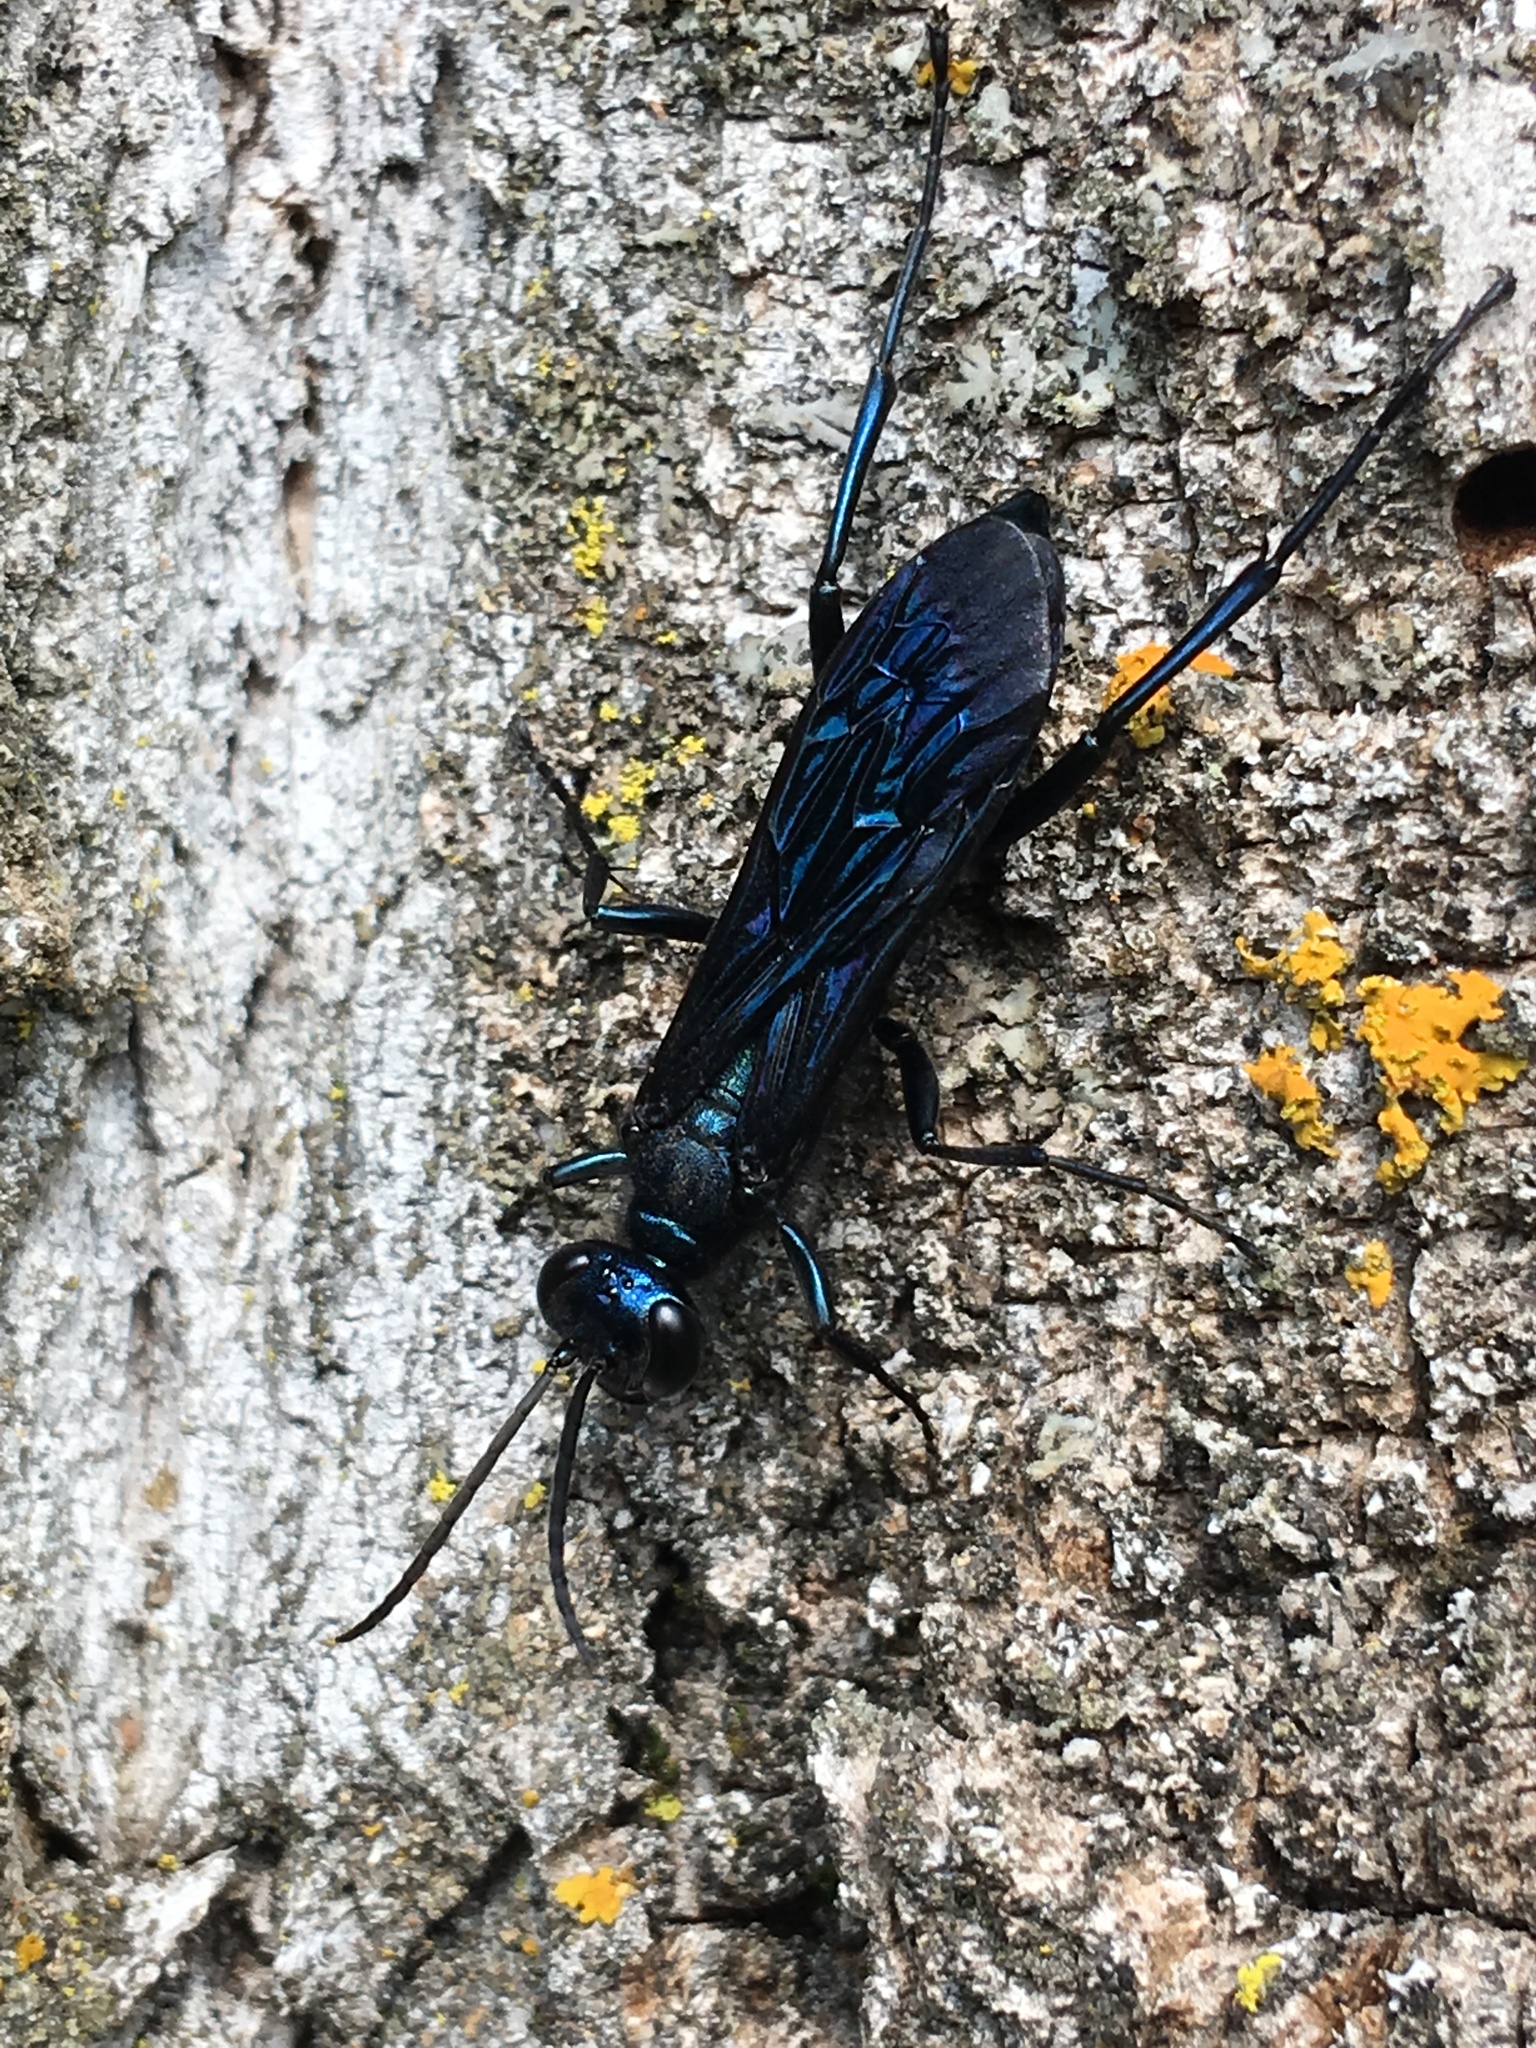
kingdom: Animalia
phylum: Arthropoda
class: Insecta
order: Hymenoptera
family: Sphecidae
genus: Chalybion
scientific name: Chalybion californicum
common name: Mud dauber
